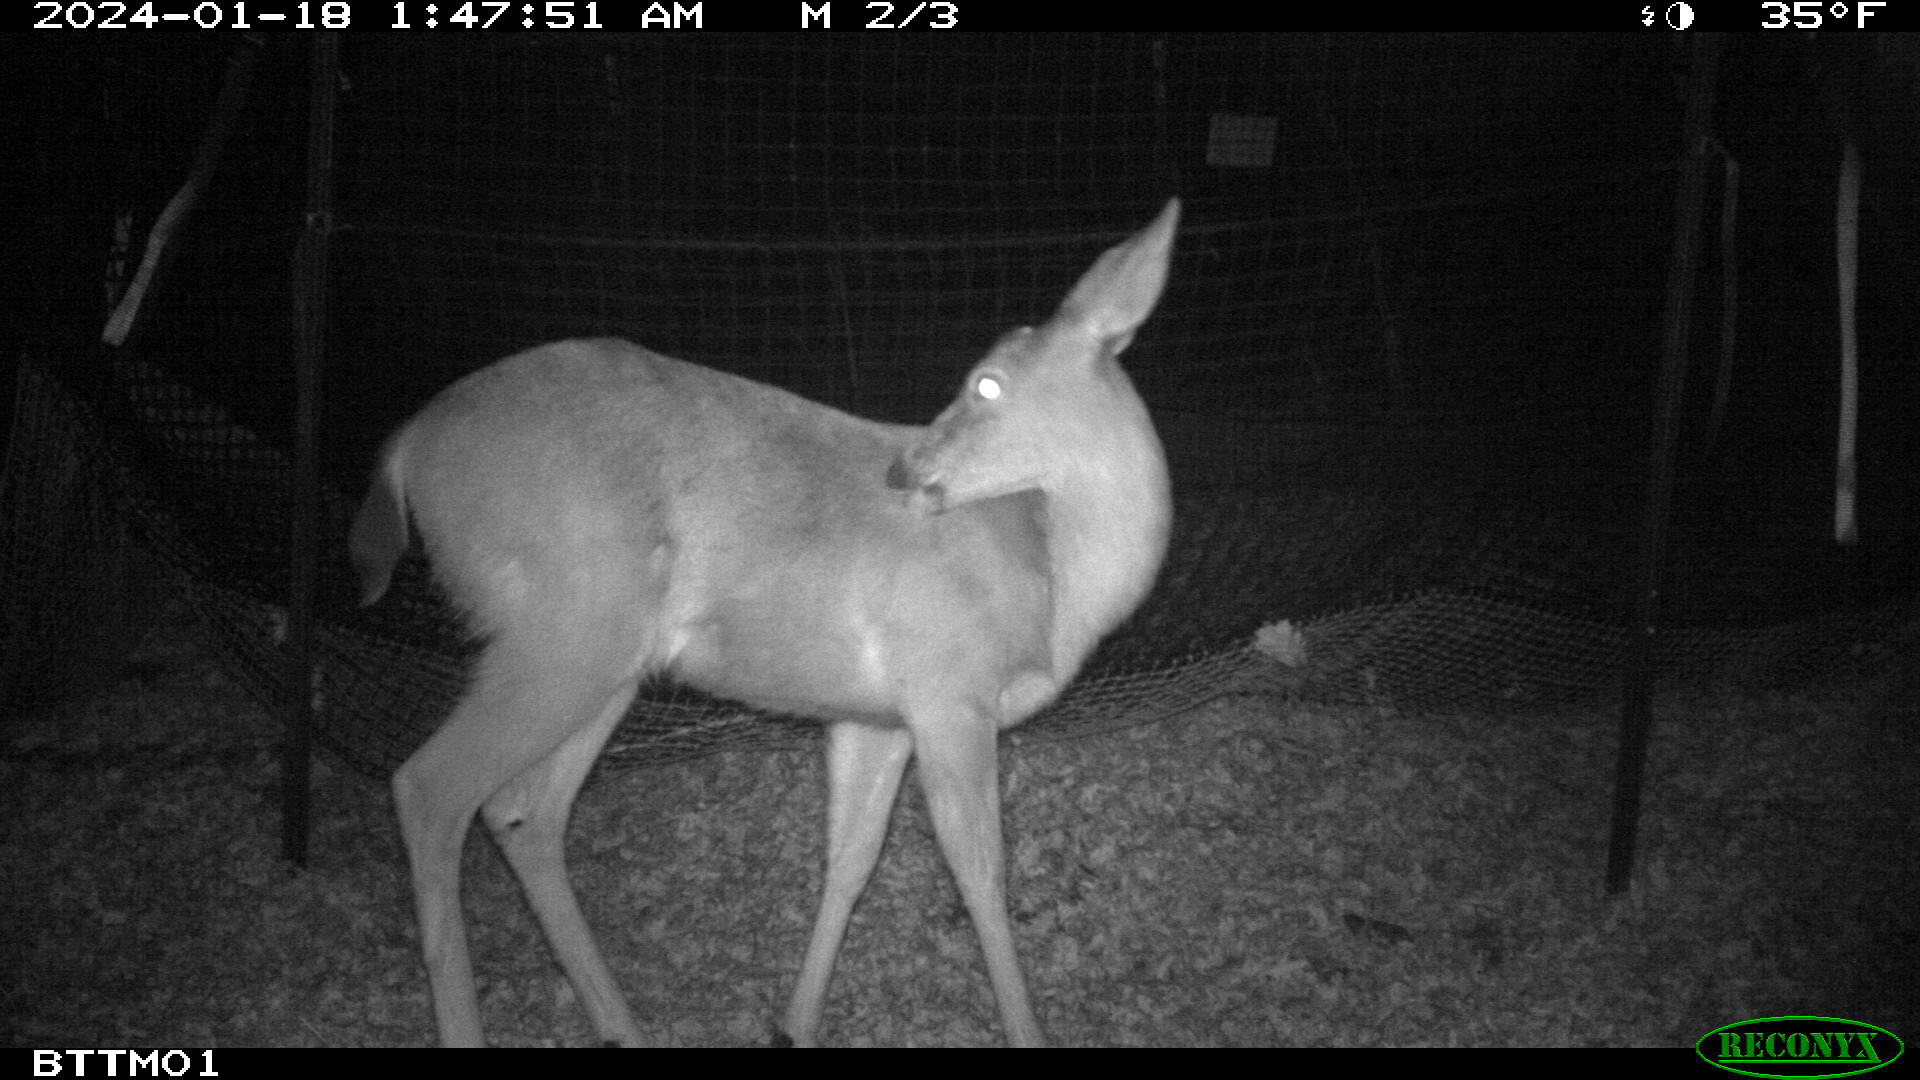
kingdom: Animalia
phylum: Chordata
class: Mammalia
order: Artiodactyla
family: Cervidae
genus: Odocoileus
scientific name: Odocoileus hemionus
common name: Mule deer
